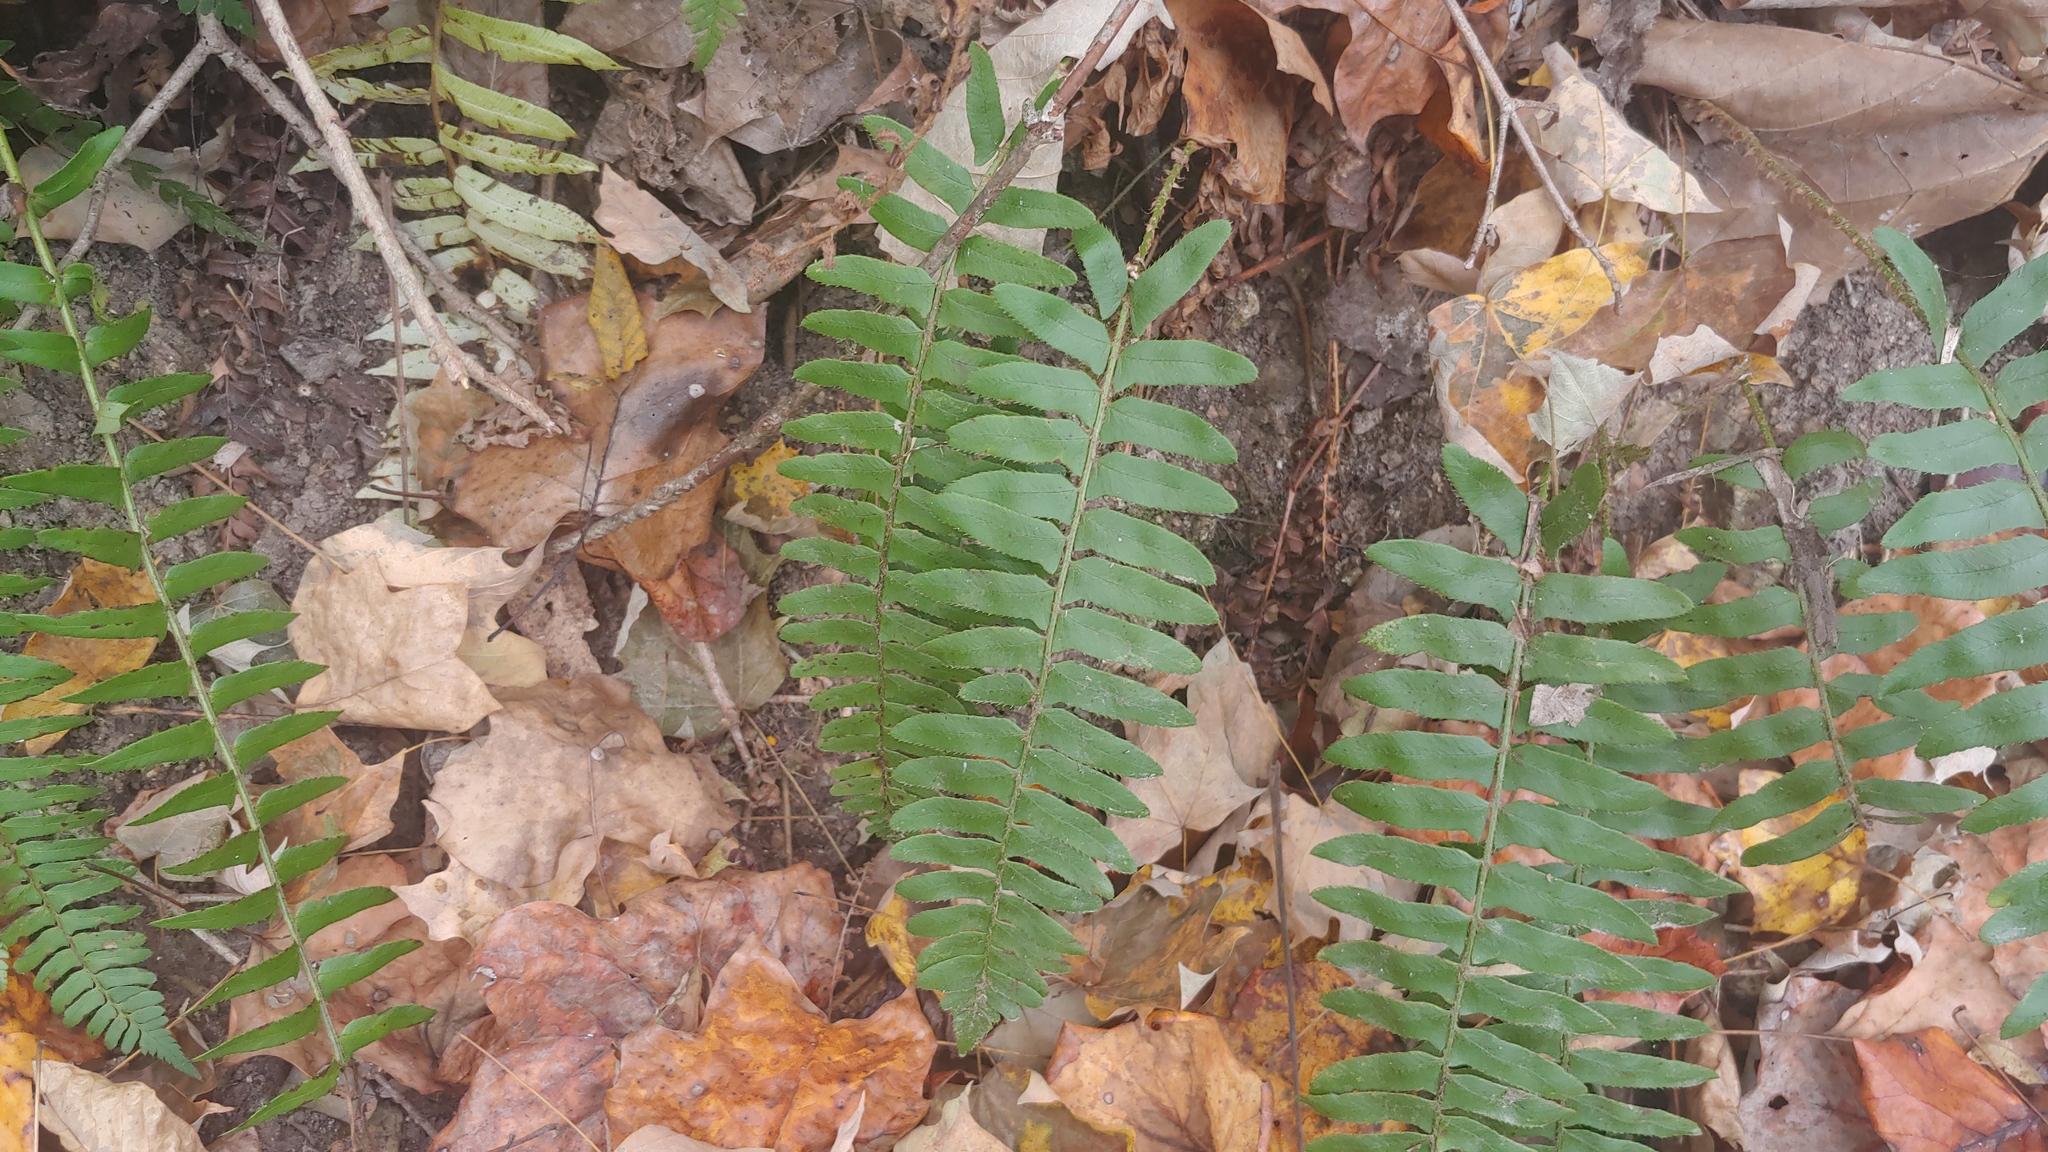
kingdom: Plantae
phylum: Tracheophyta
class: Polypodiopsida
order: Polypodiales
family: Dryopteridaceae
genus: Polystichum
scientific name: Polystichum acrostichoides
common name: Christmas fern
